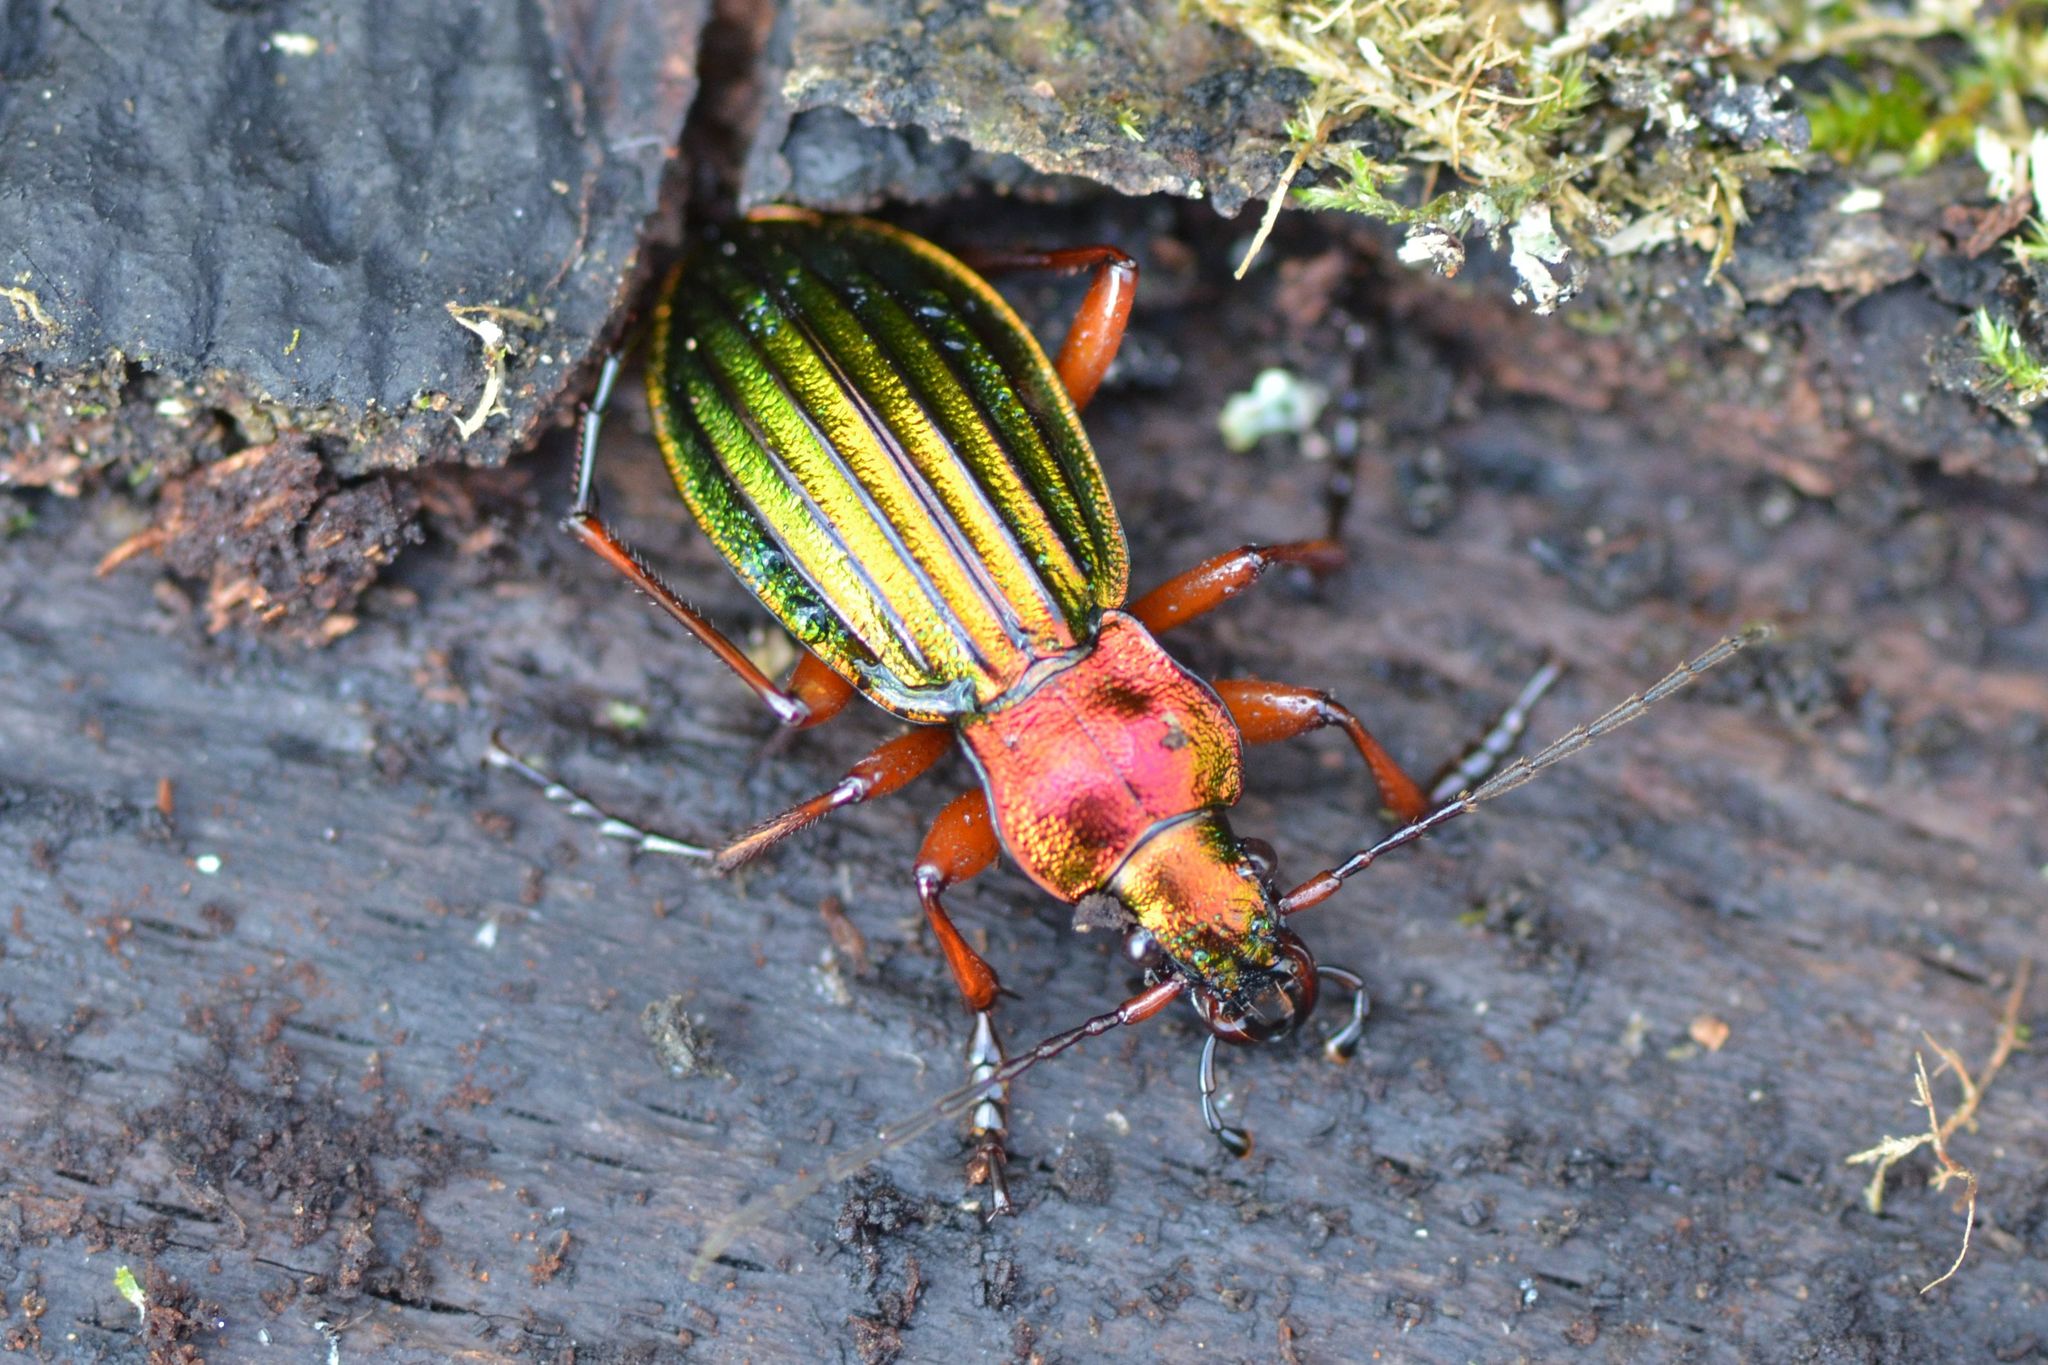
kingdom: Animalia
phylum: Arthropoda
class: Insecta
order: Coleoptera
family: Carabidae
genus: Carabus
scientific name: Carabus auronitens
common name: Carabus auronitens
